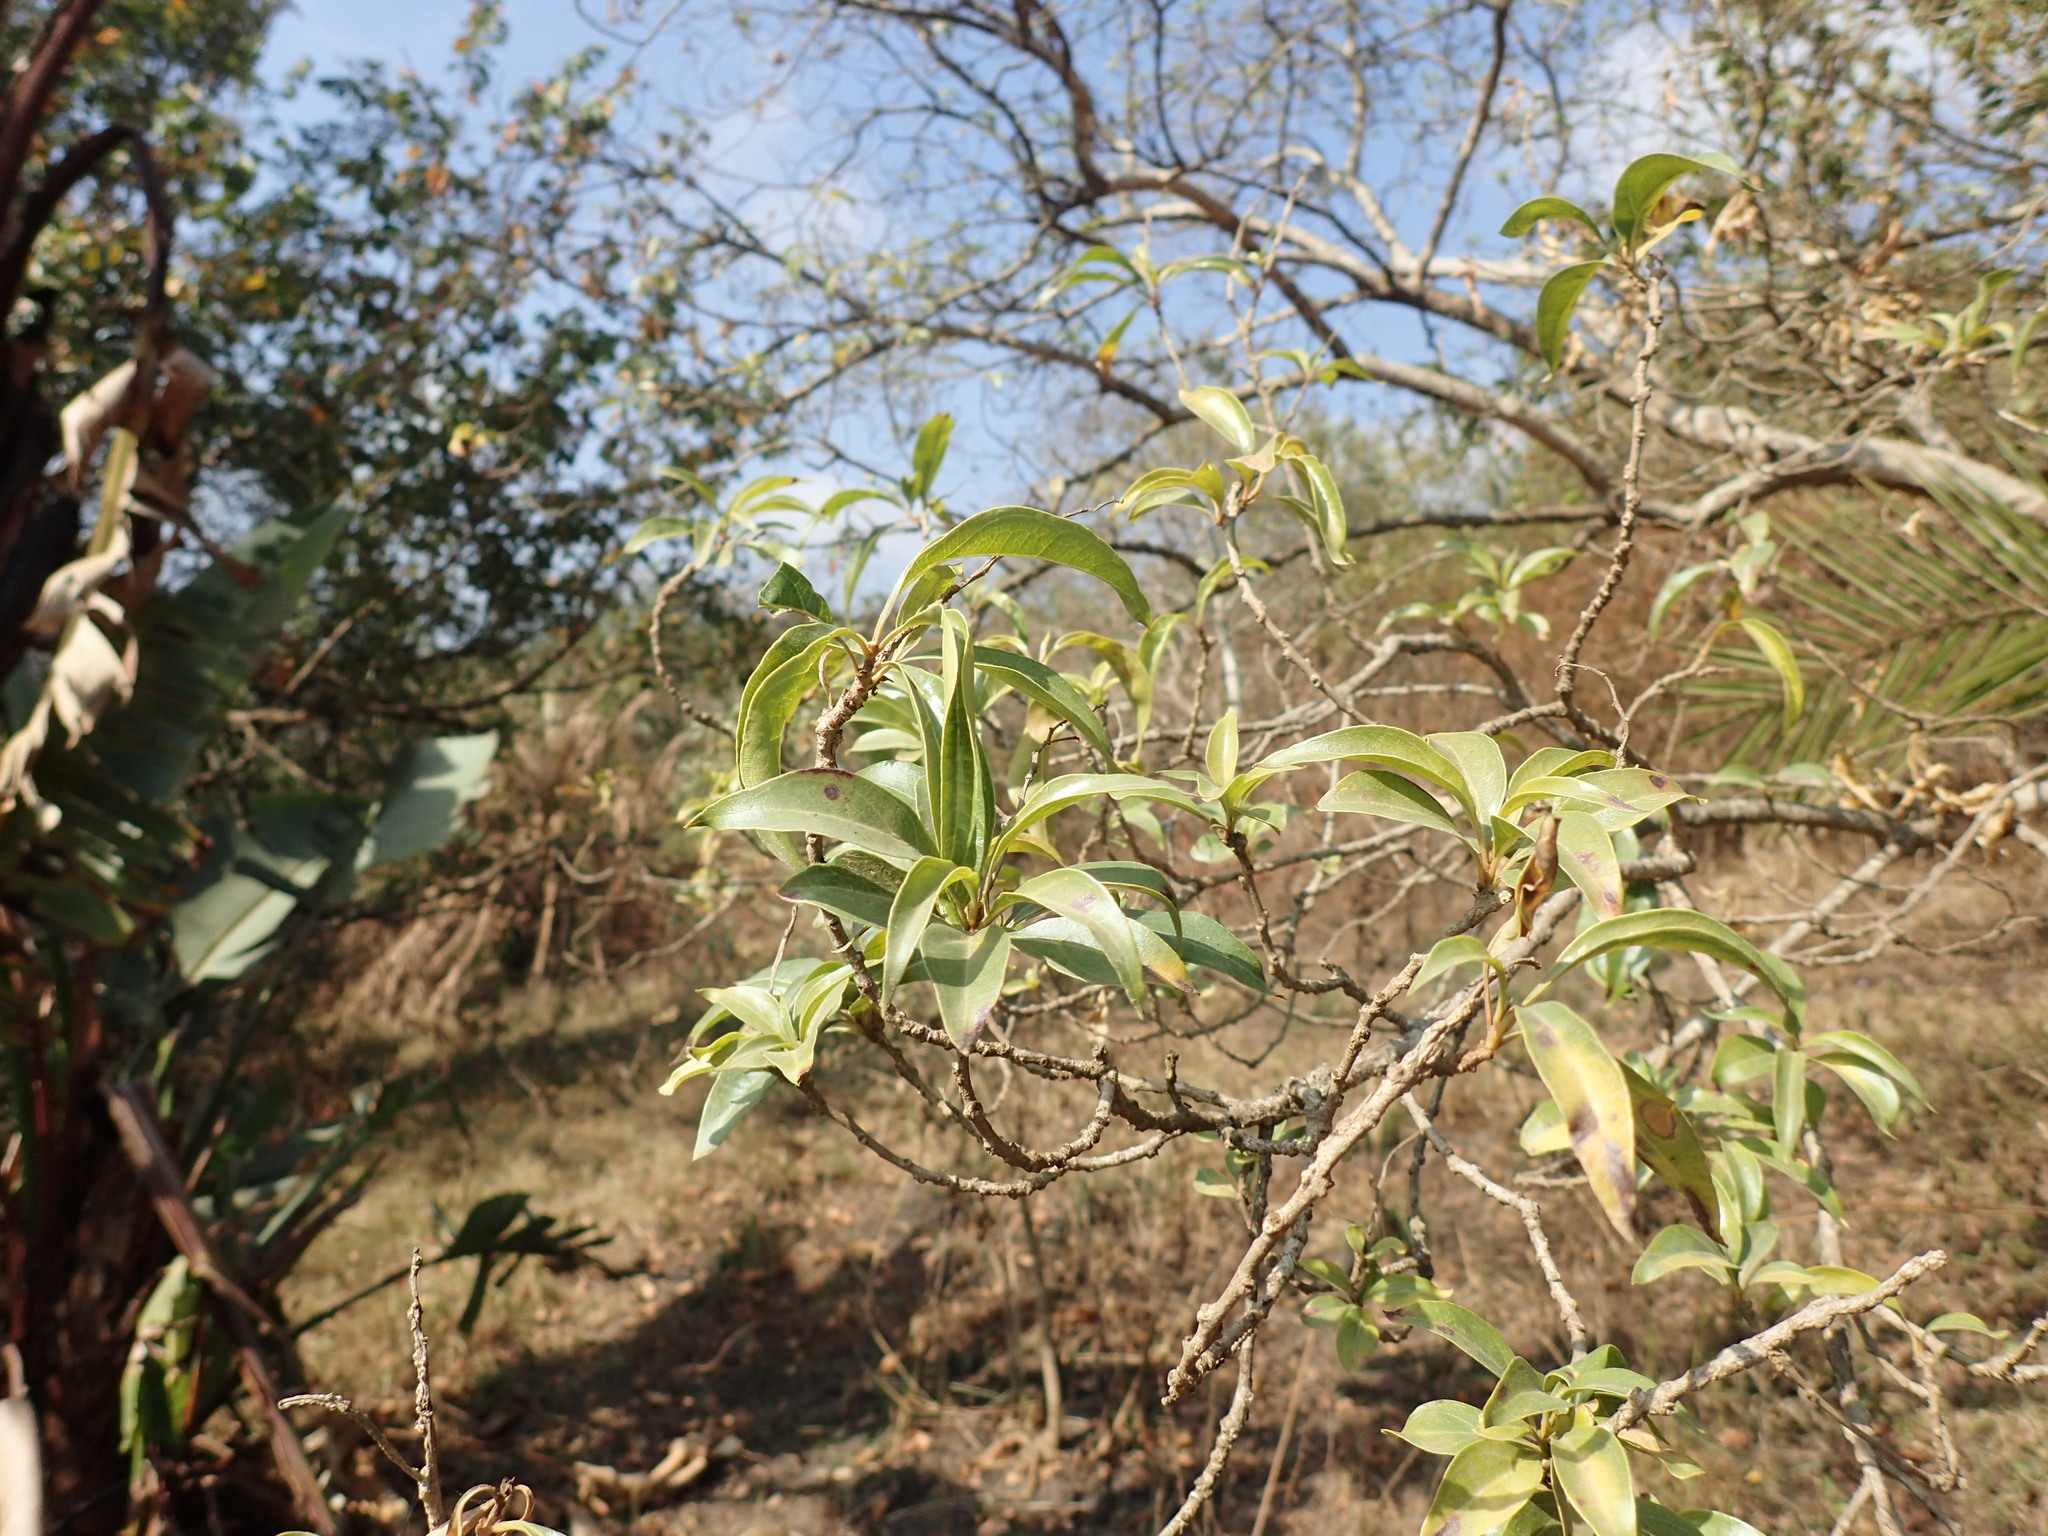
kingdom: Plantae
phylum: Tracheophyta
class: Magnoliopsida
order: Myrtales
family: Myrtaceae
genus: Heteropyxis
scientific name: Heteropyxis natalensis
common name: Lavender tree
